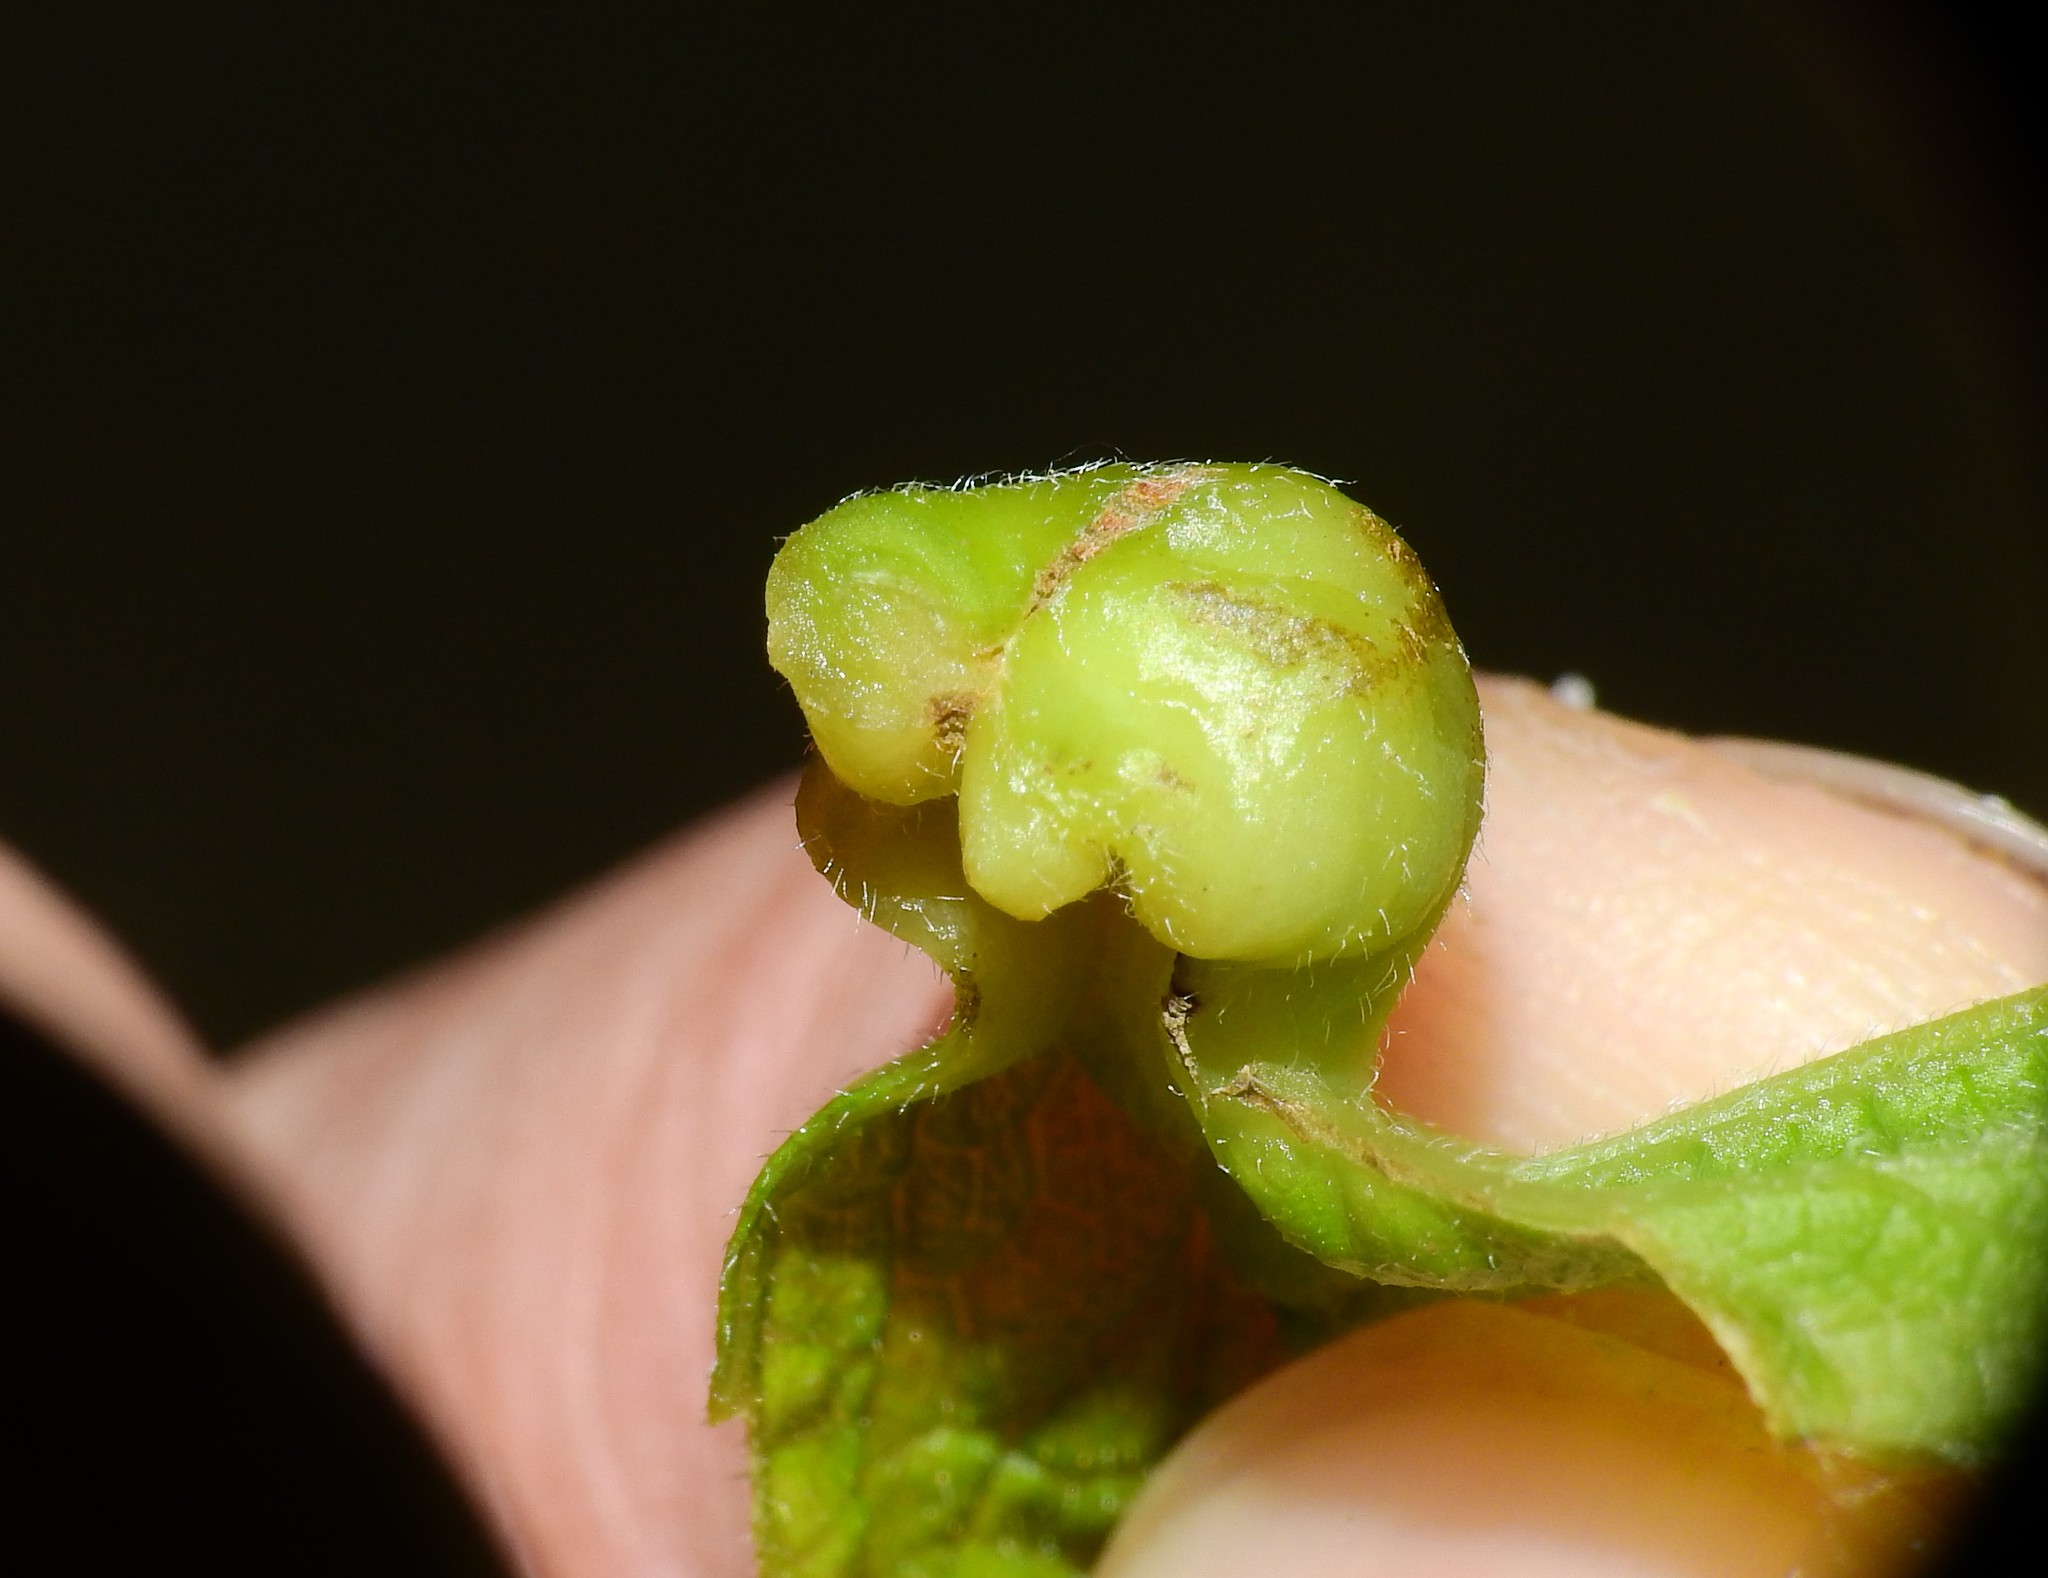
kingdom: Animalia
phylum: Arthropoda
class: Insecta
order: Hemiptera
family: Aphalaridae
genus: Pachypsylla
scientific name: Pachypsylla venusta
